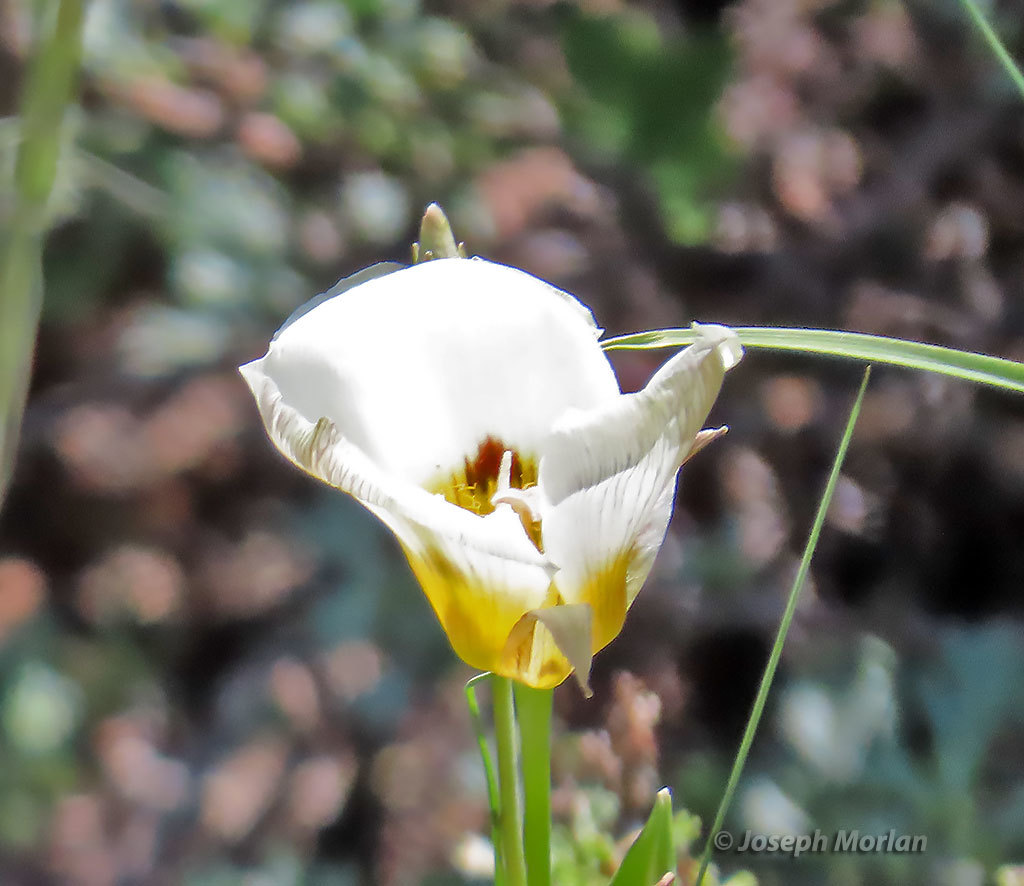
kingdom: Plantae
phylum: Tracheophyta
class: Liliopsida
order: Liliales
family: Liliaceae
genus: Calochortus
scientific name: Calochortus leichtlinii
